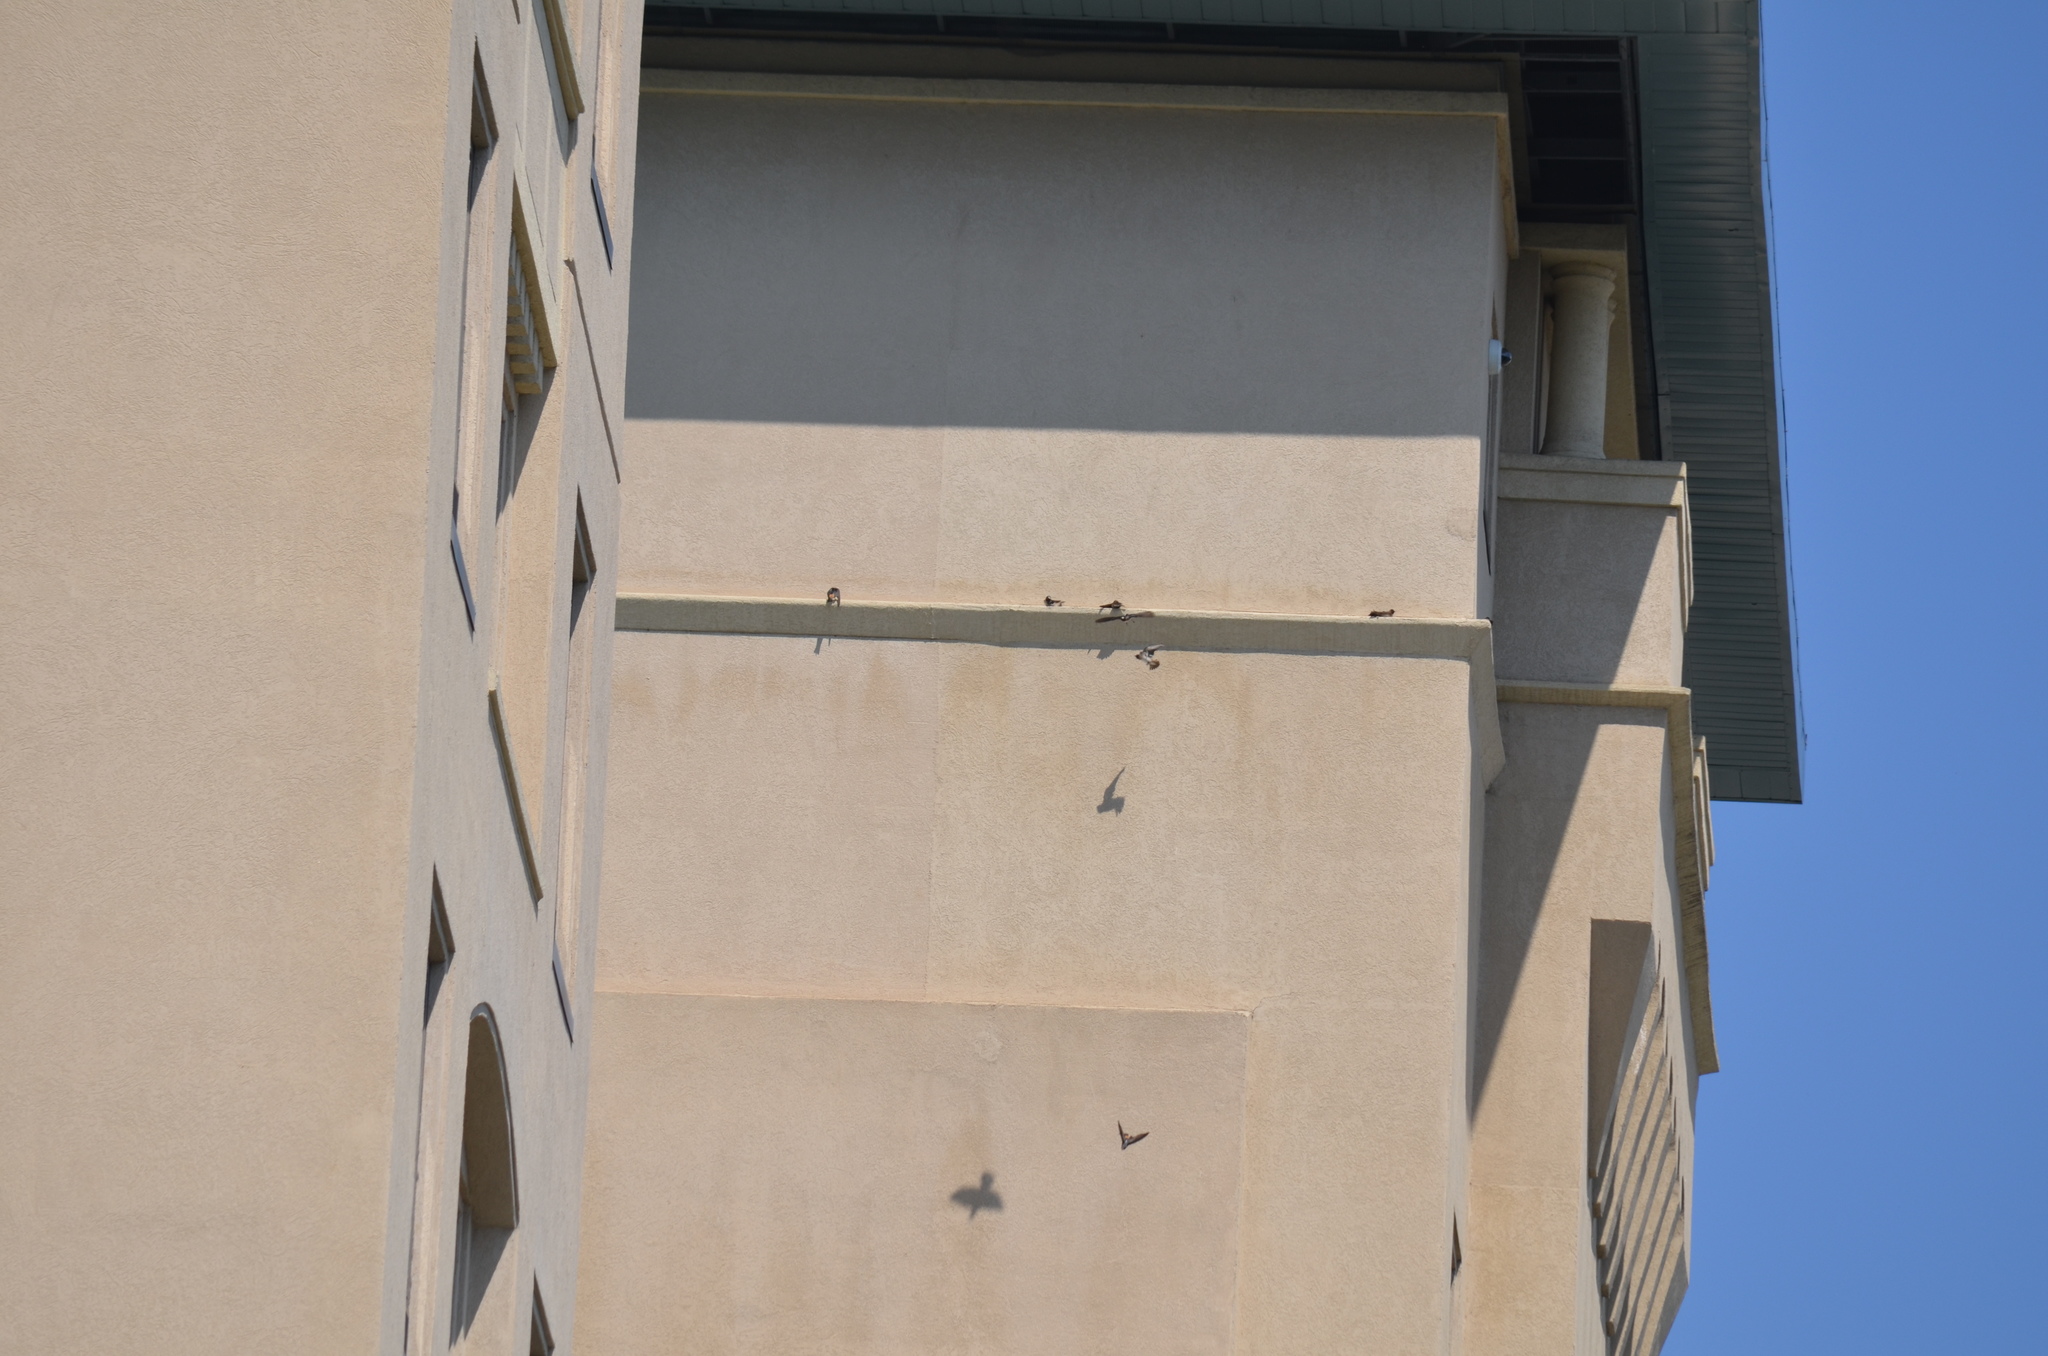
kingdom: Animalia
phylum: Chordata
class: Aves
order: Passeriformes
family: Hirundinidae
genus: Petrochelidon
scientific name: Petrochelidon pyrrhonota
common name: American cliff swallow
